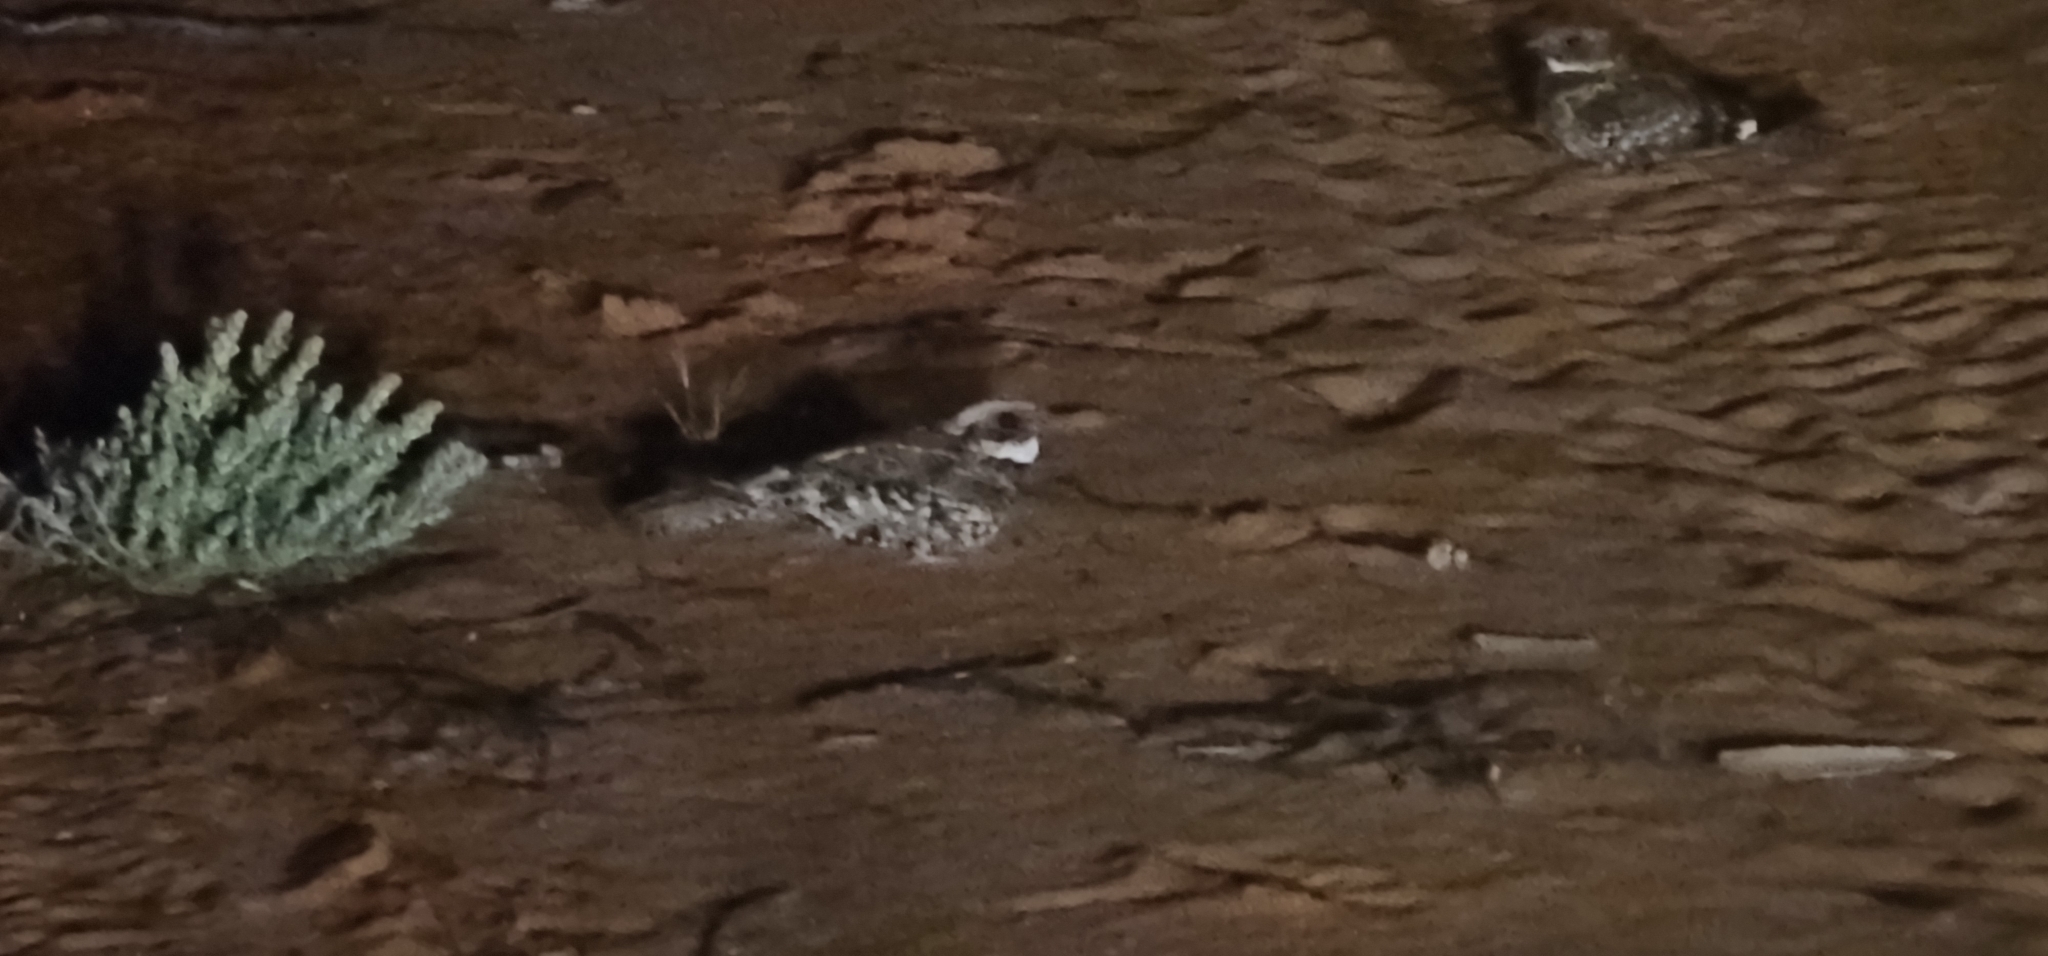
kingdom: Animalia
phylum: Chordata
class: Aves
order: Caprimulgiformes
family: Caprimulgidae
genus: Eurostopodus
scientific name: Eurostopodus argus
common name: Spotted nightjar
